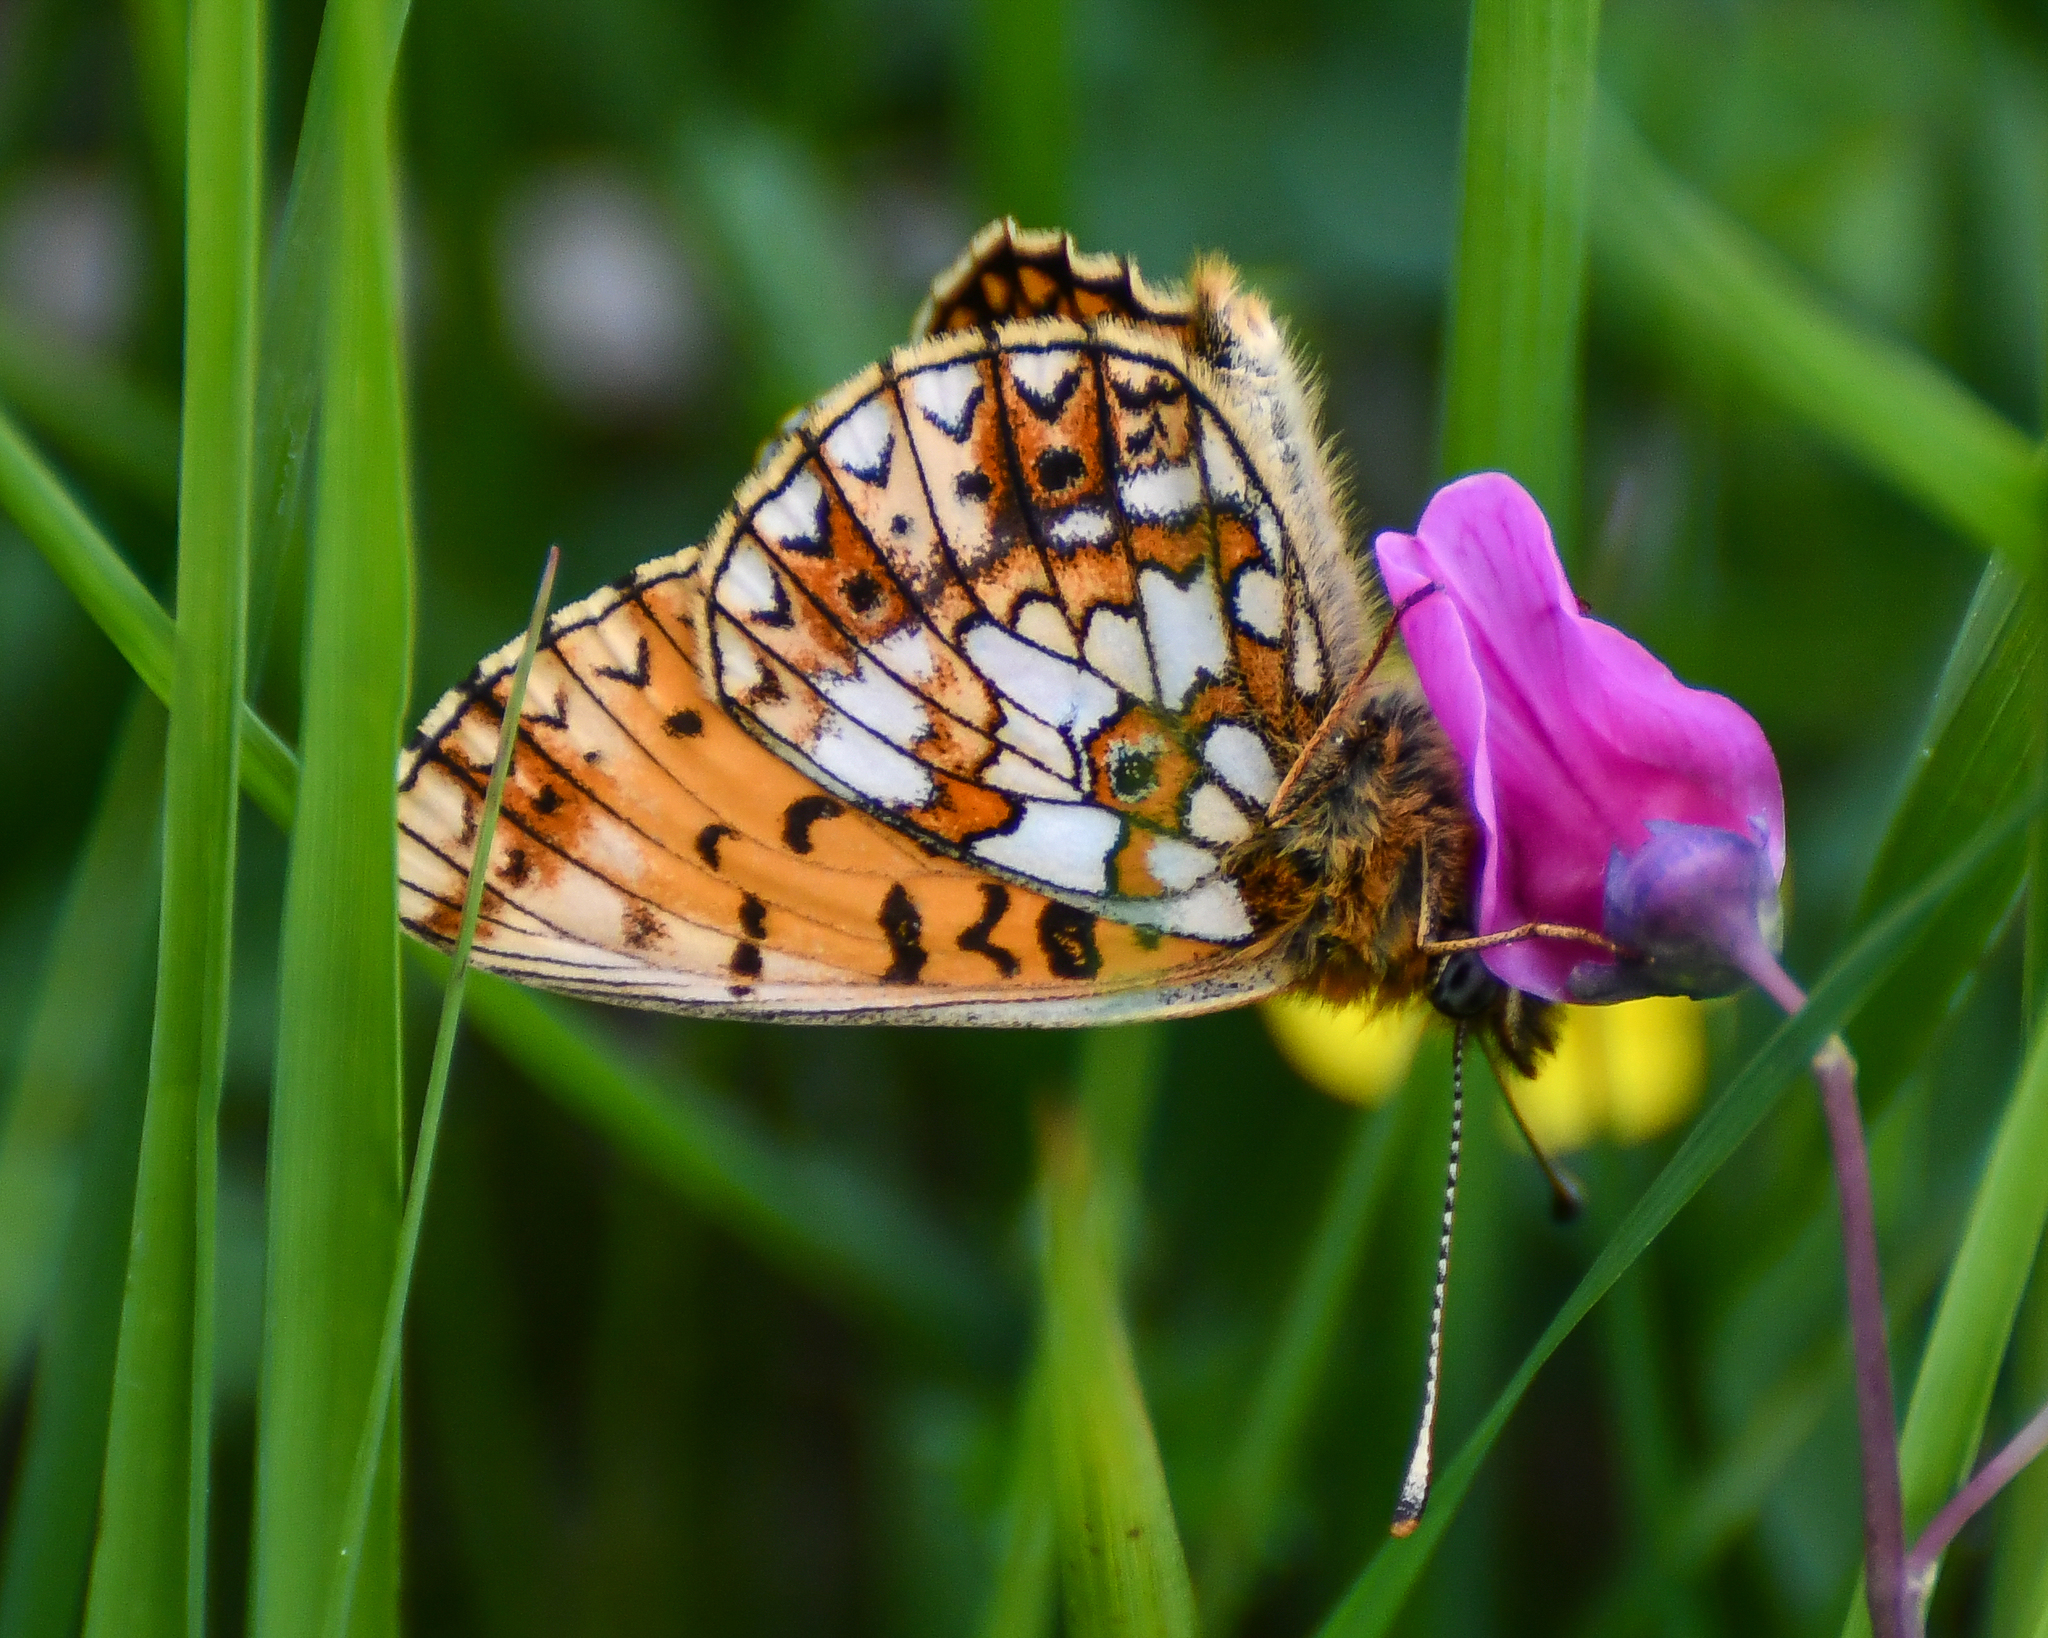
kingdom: Animalia
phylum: Arthropoda
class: Insecta
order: Lepidoptera
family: Nymphalidae
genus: Boloria
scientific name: Boloria selene
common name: Small pearl-bordered fritillary
